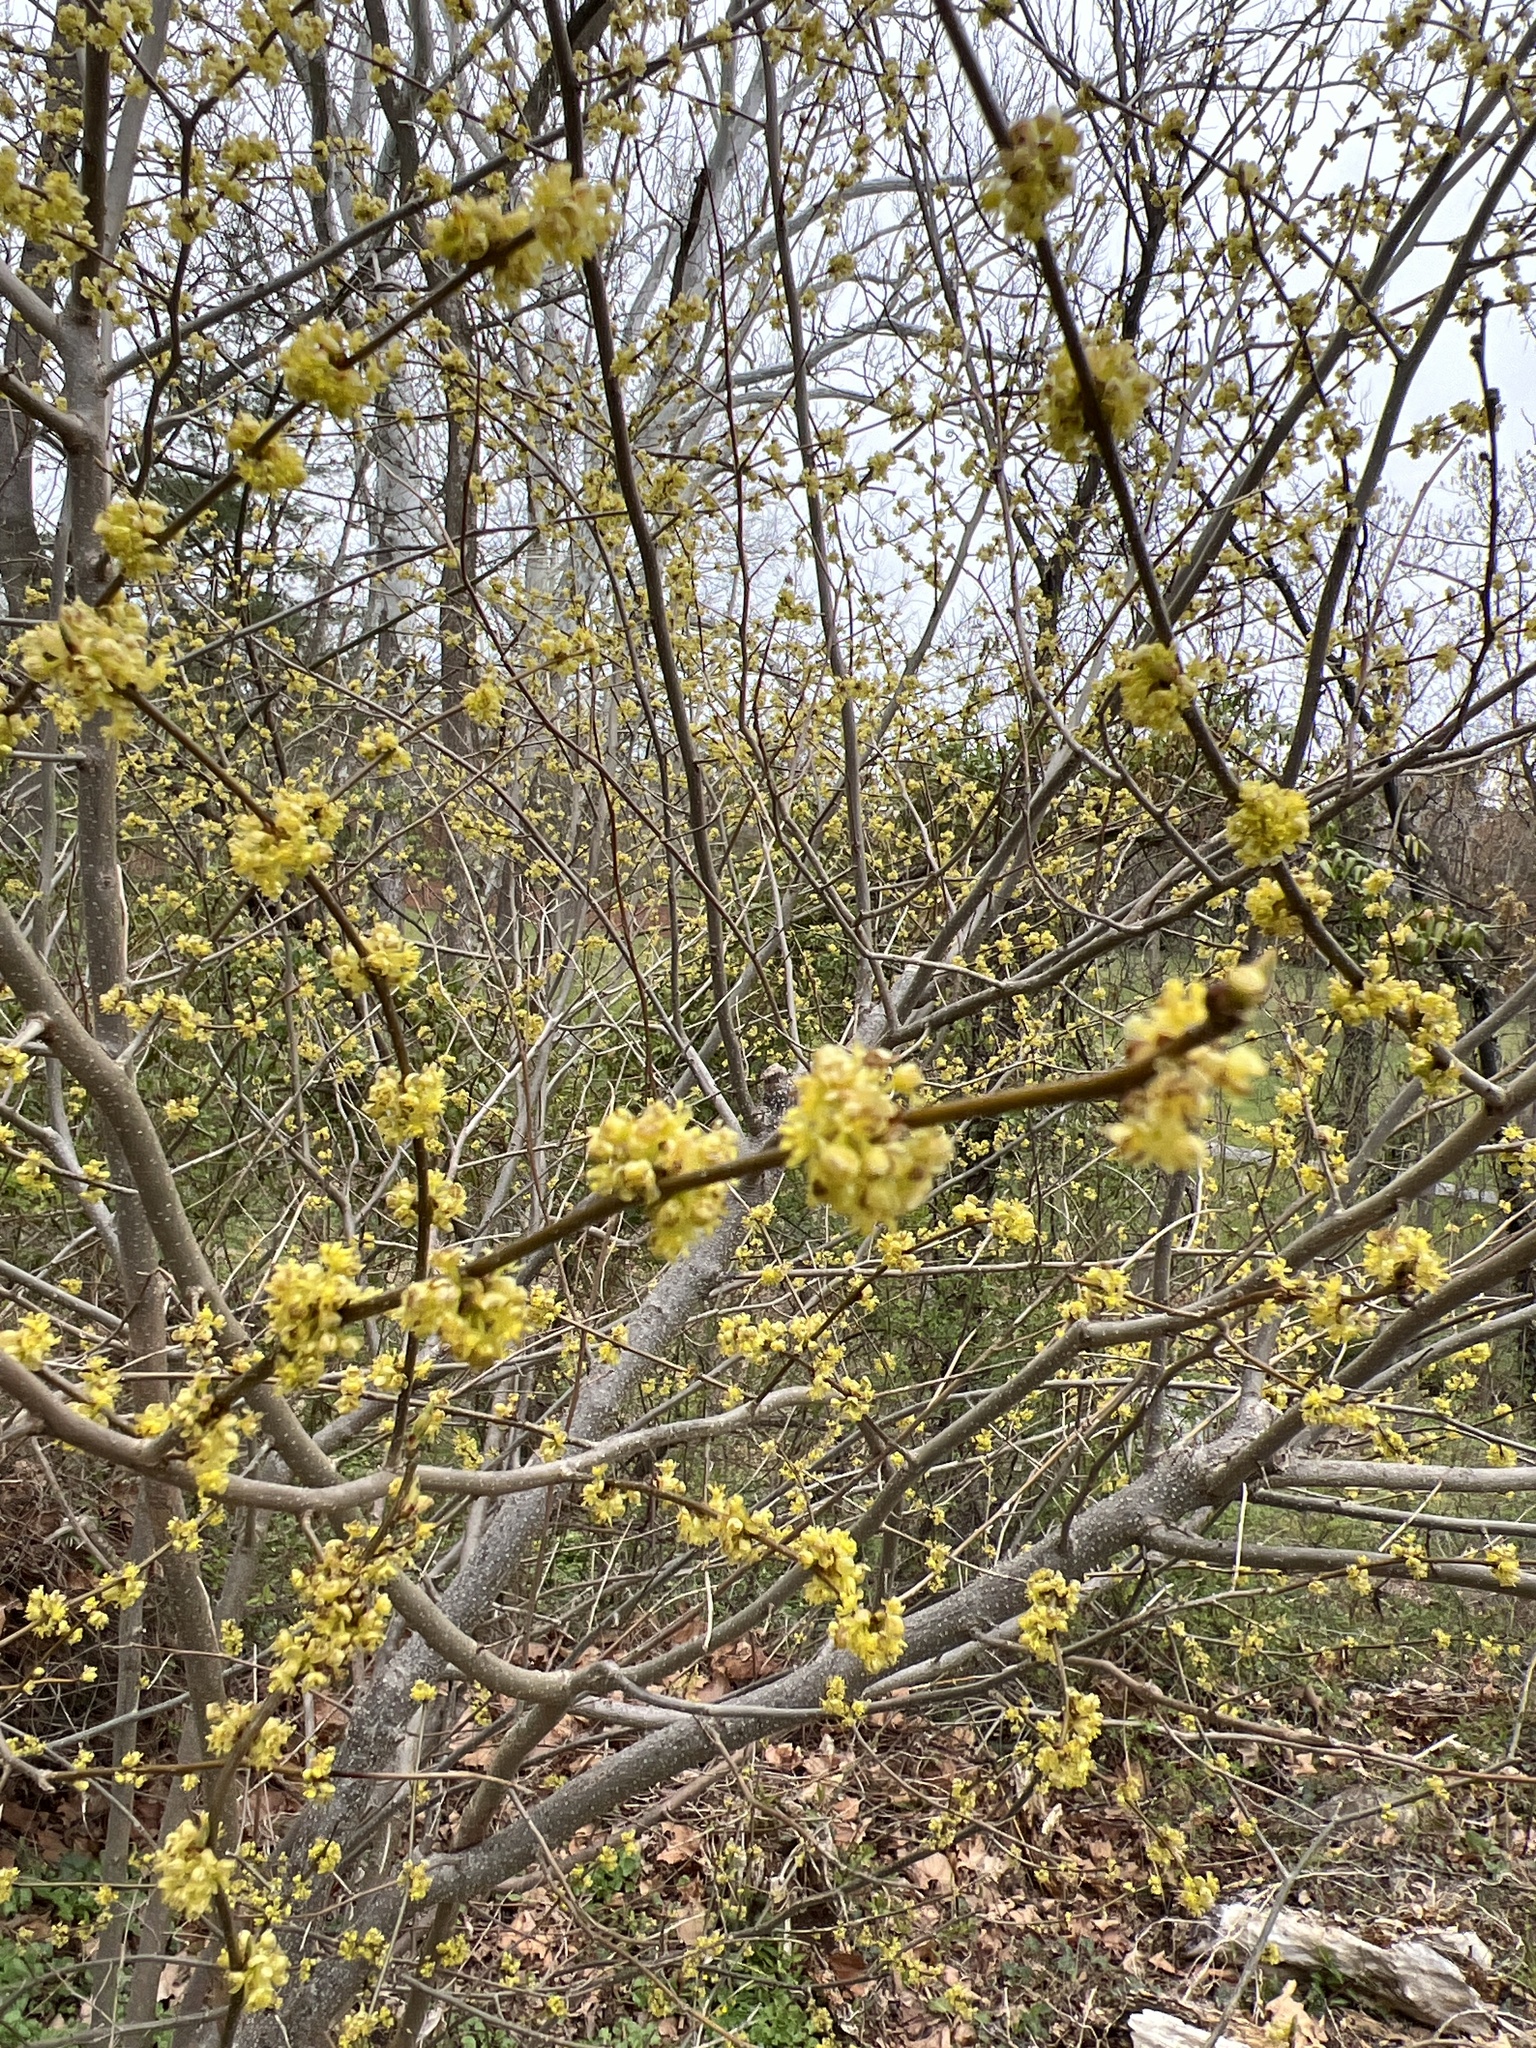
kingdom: Plantae
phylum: Tracheophyta
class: Magnoliopsida
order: Laurales
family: Lauraceae
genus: Lindera
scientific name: Lindera benzoin
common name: Spicebush
